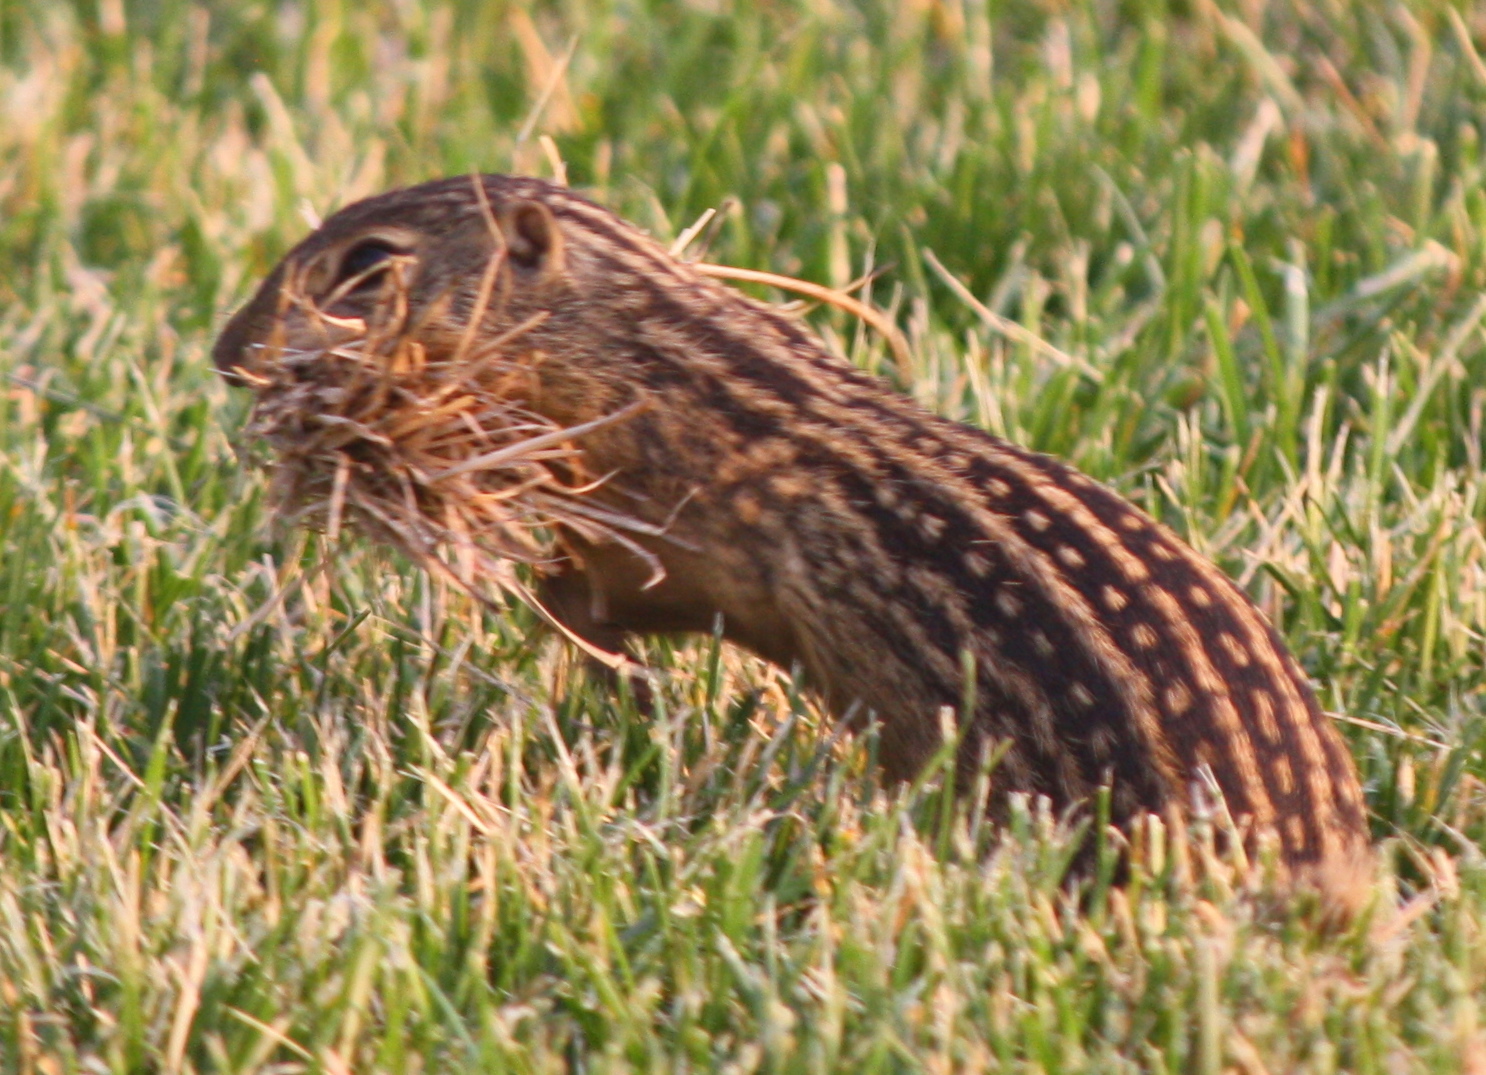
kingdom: Animalia
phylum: Chordata
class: Mammalia
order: Rodentia
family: Sciuridae
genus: Ictidomys
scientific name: Ictidomys tridecemlineatus
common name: Thirteen-lined ground squirrel
